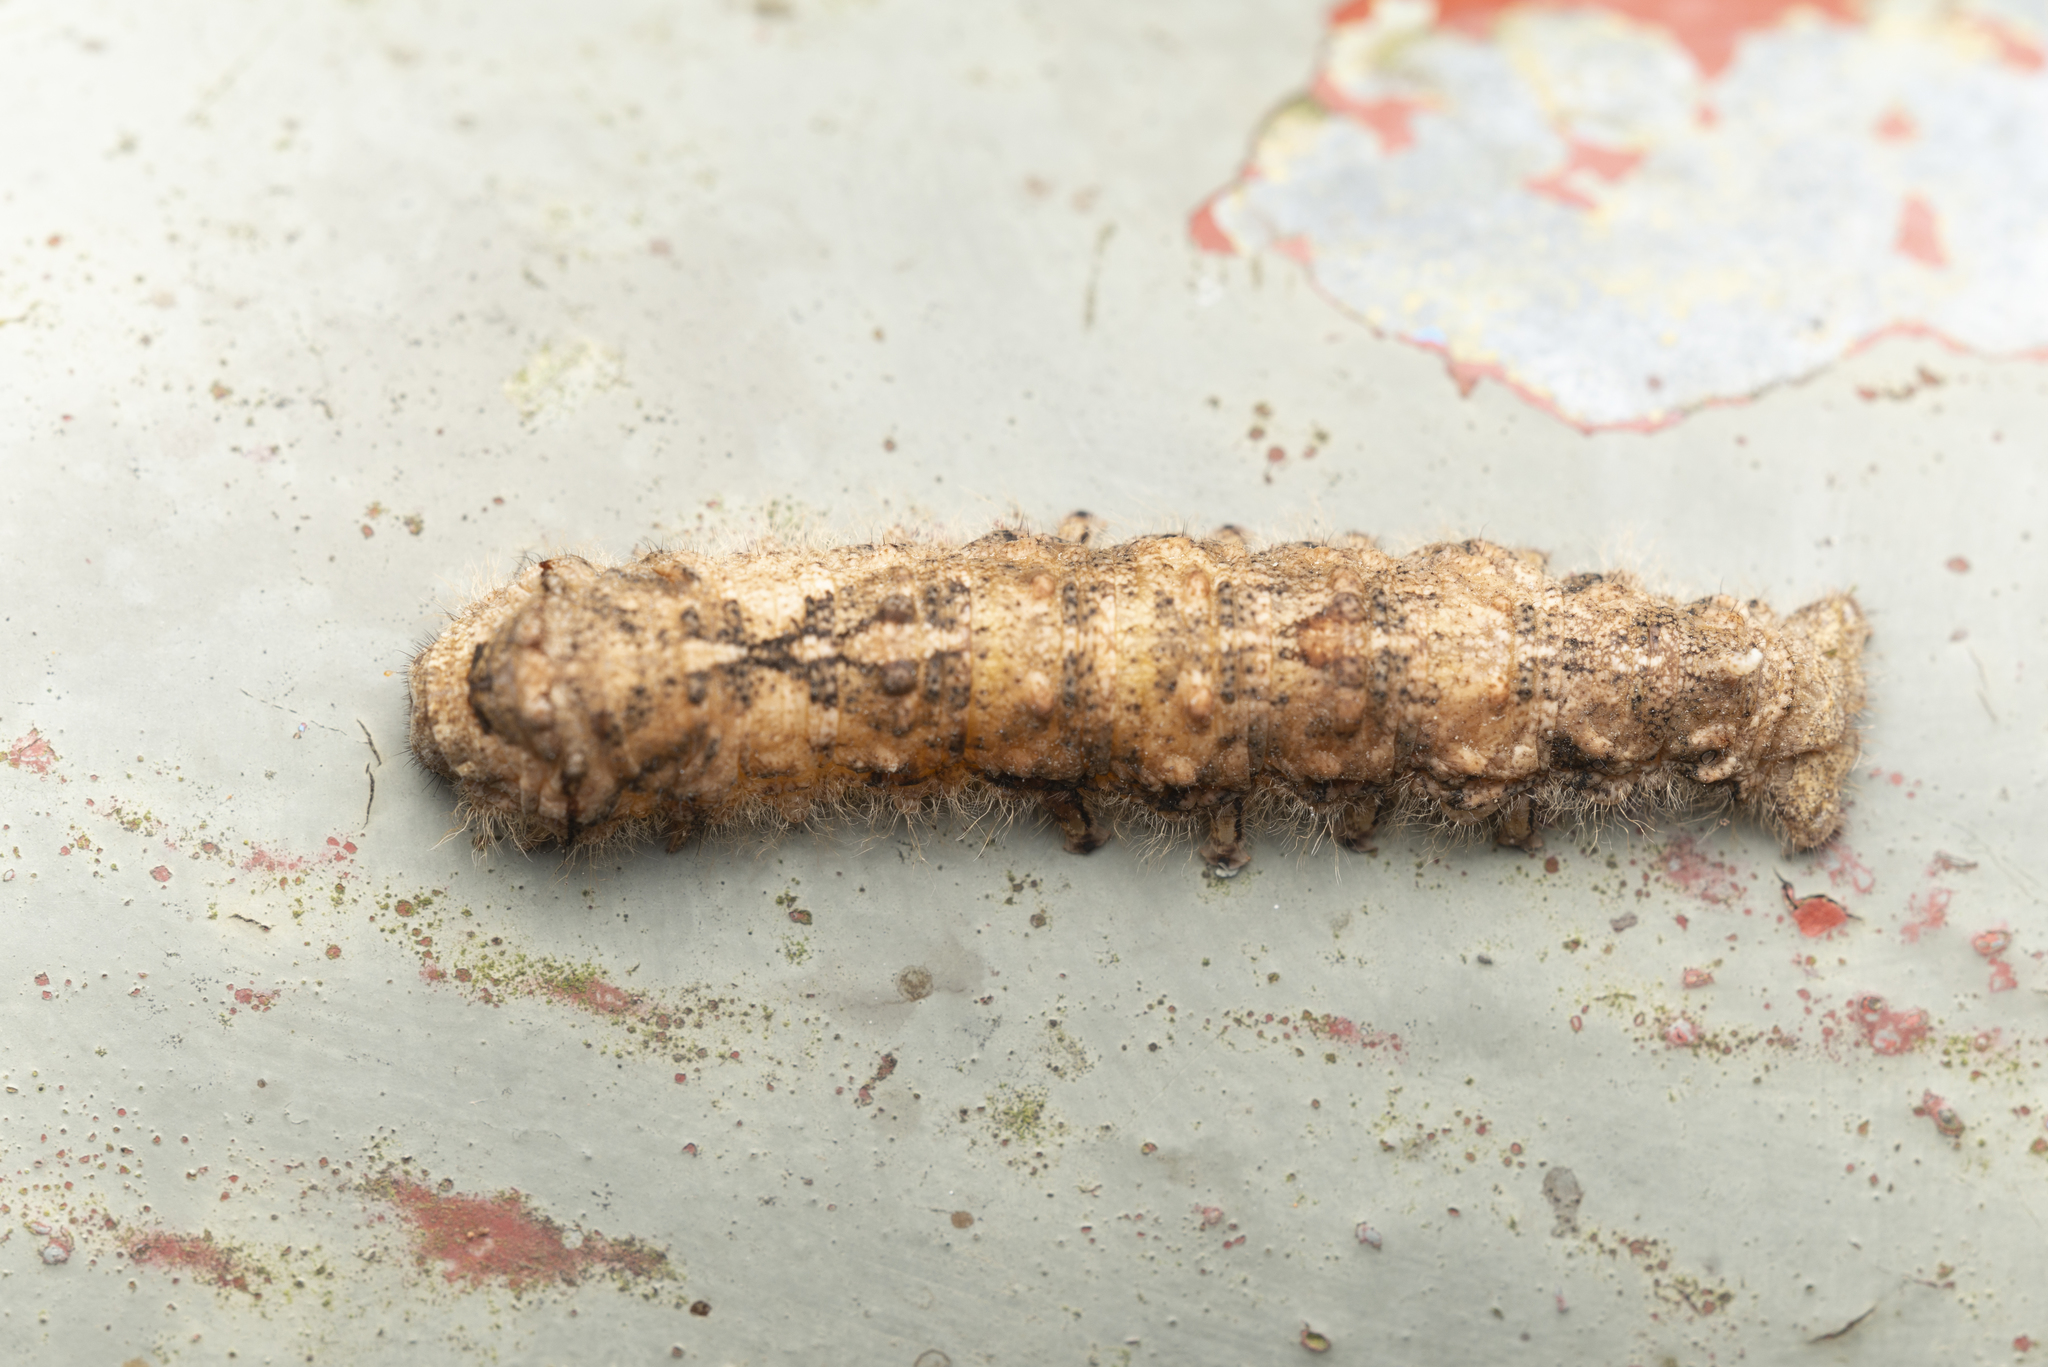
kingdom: Animalia
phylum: Arthropoda
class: Insecta
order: Lepidoptera
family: Bombycidae
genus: Ernolatia
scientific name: Ernolatia moorei
